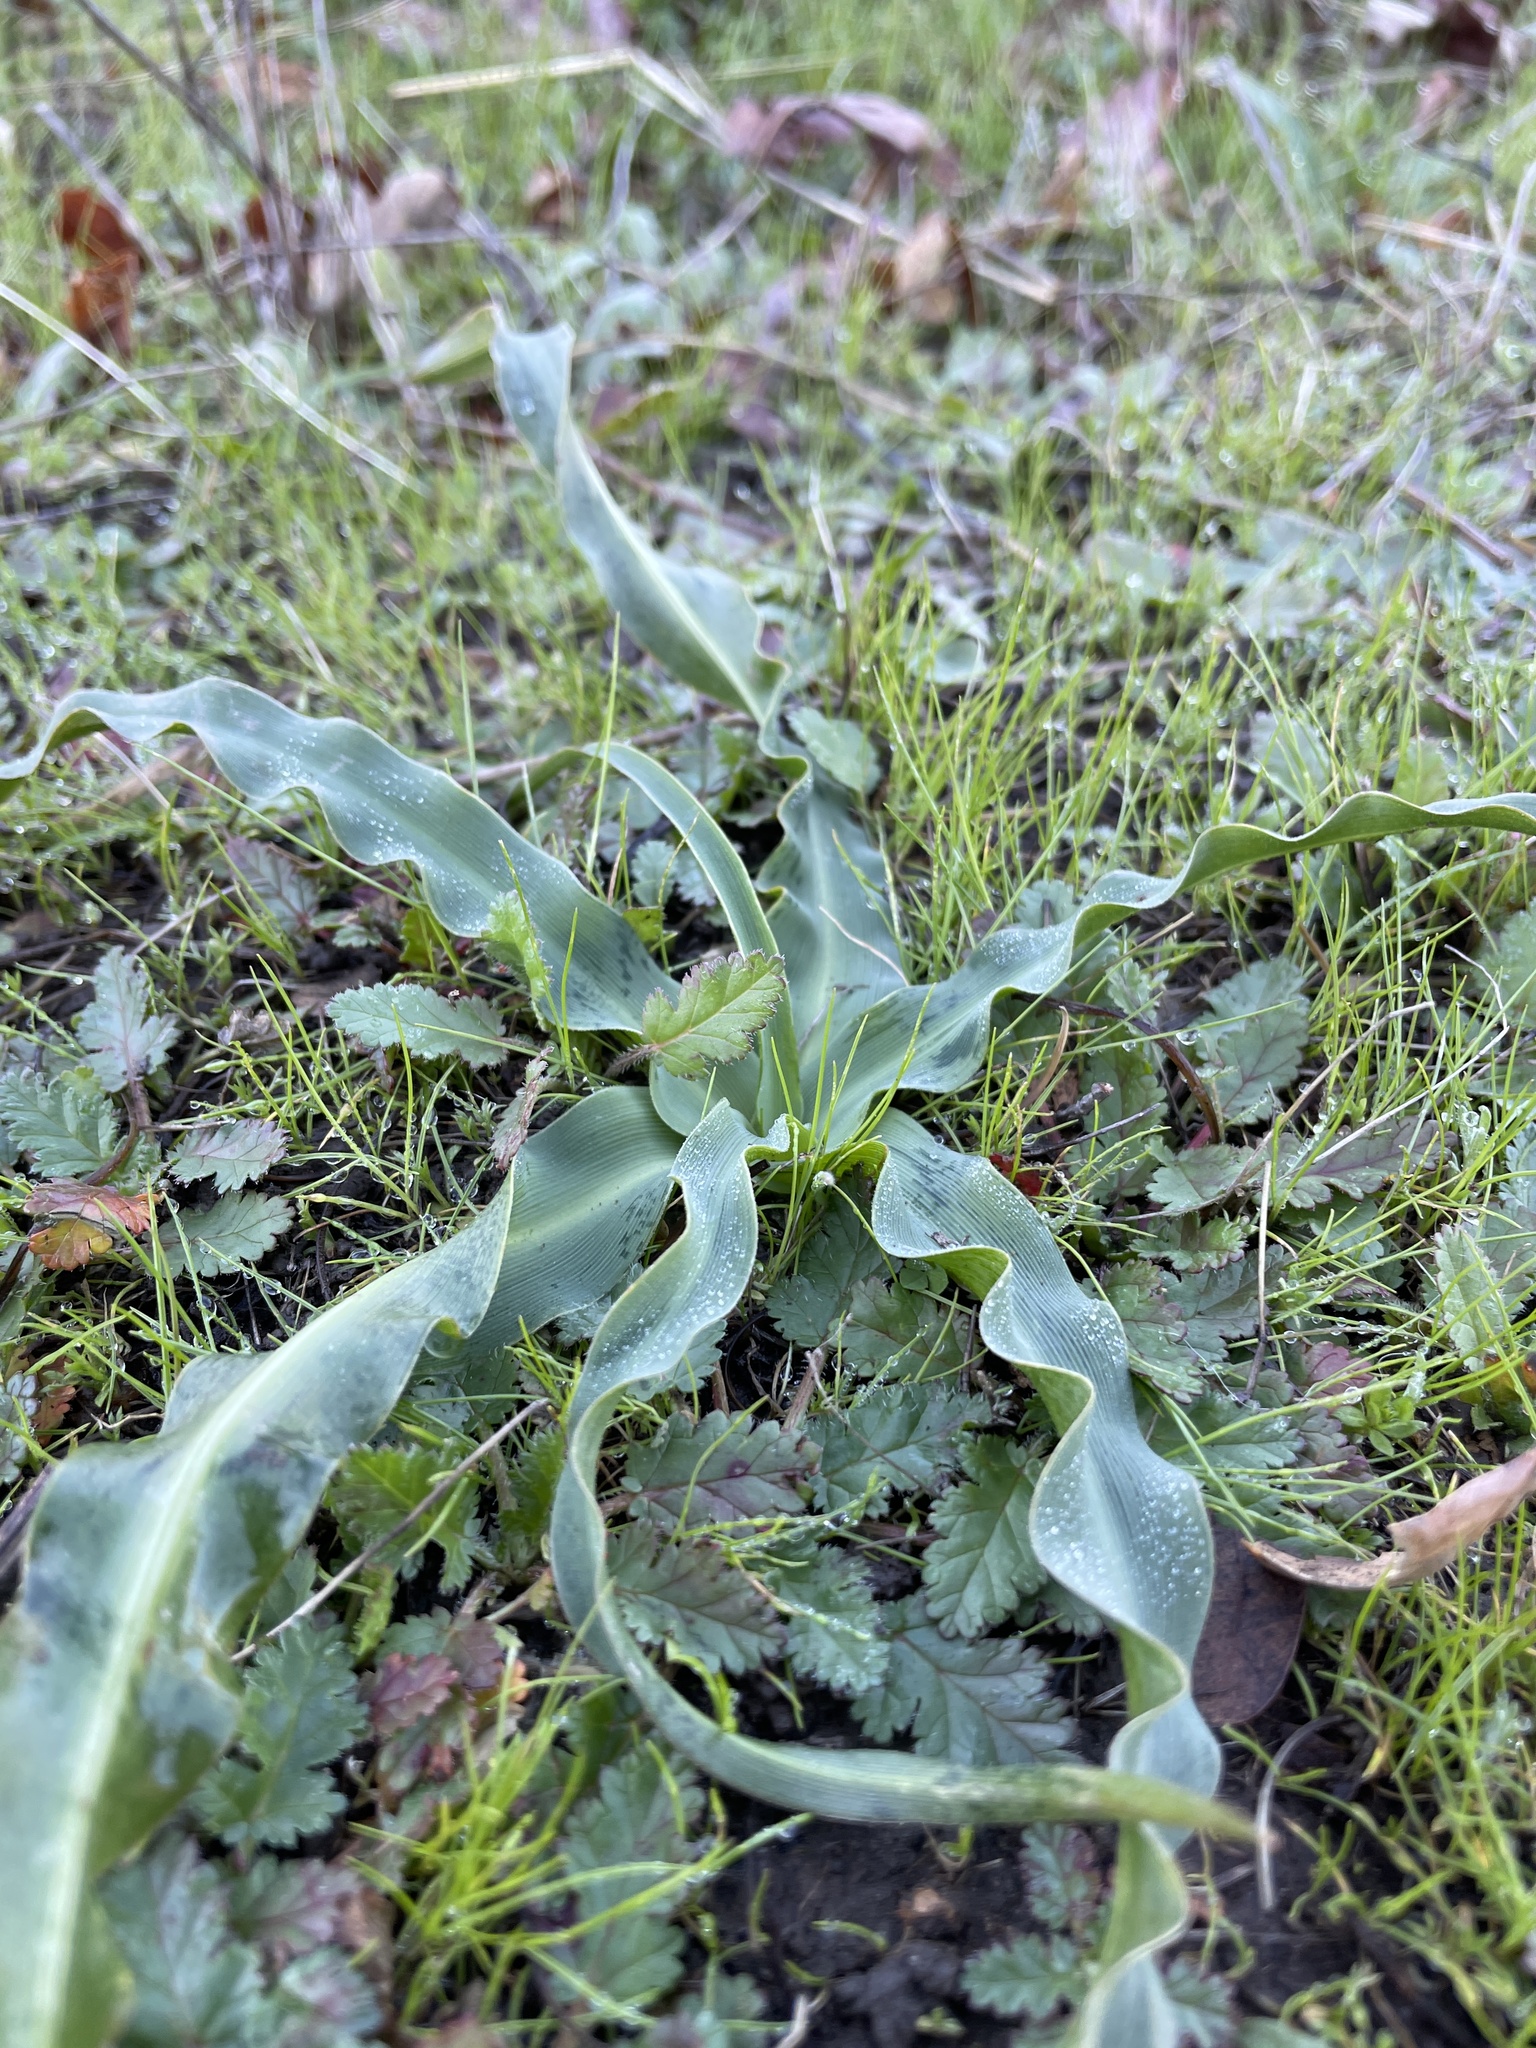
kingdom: Plantae
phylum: Tracheophyta
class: Liliopsida
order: Asparagales
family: Asparagaceae
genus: Chlorogalum
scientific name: Chlorogalum pomeridianum
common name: Amole
